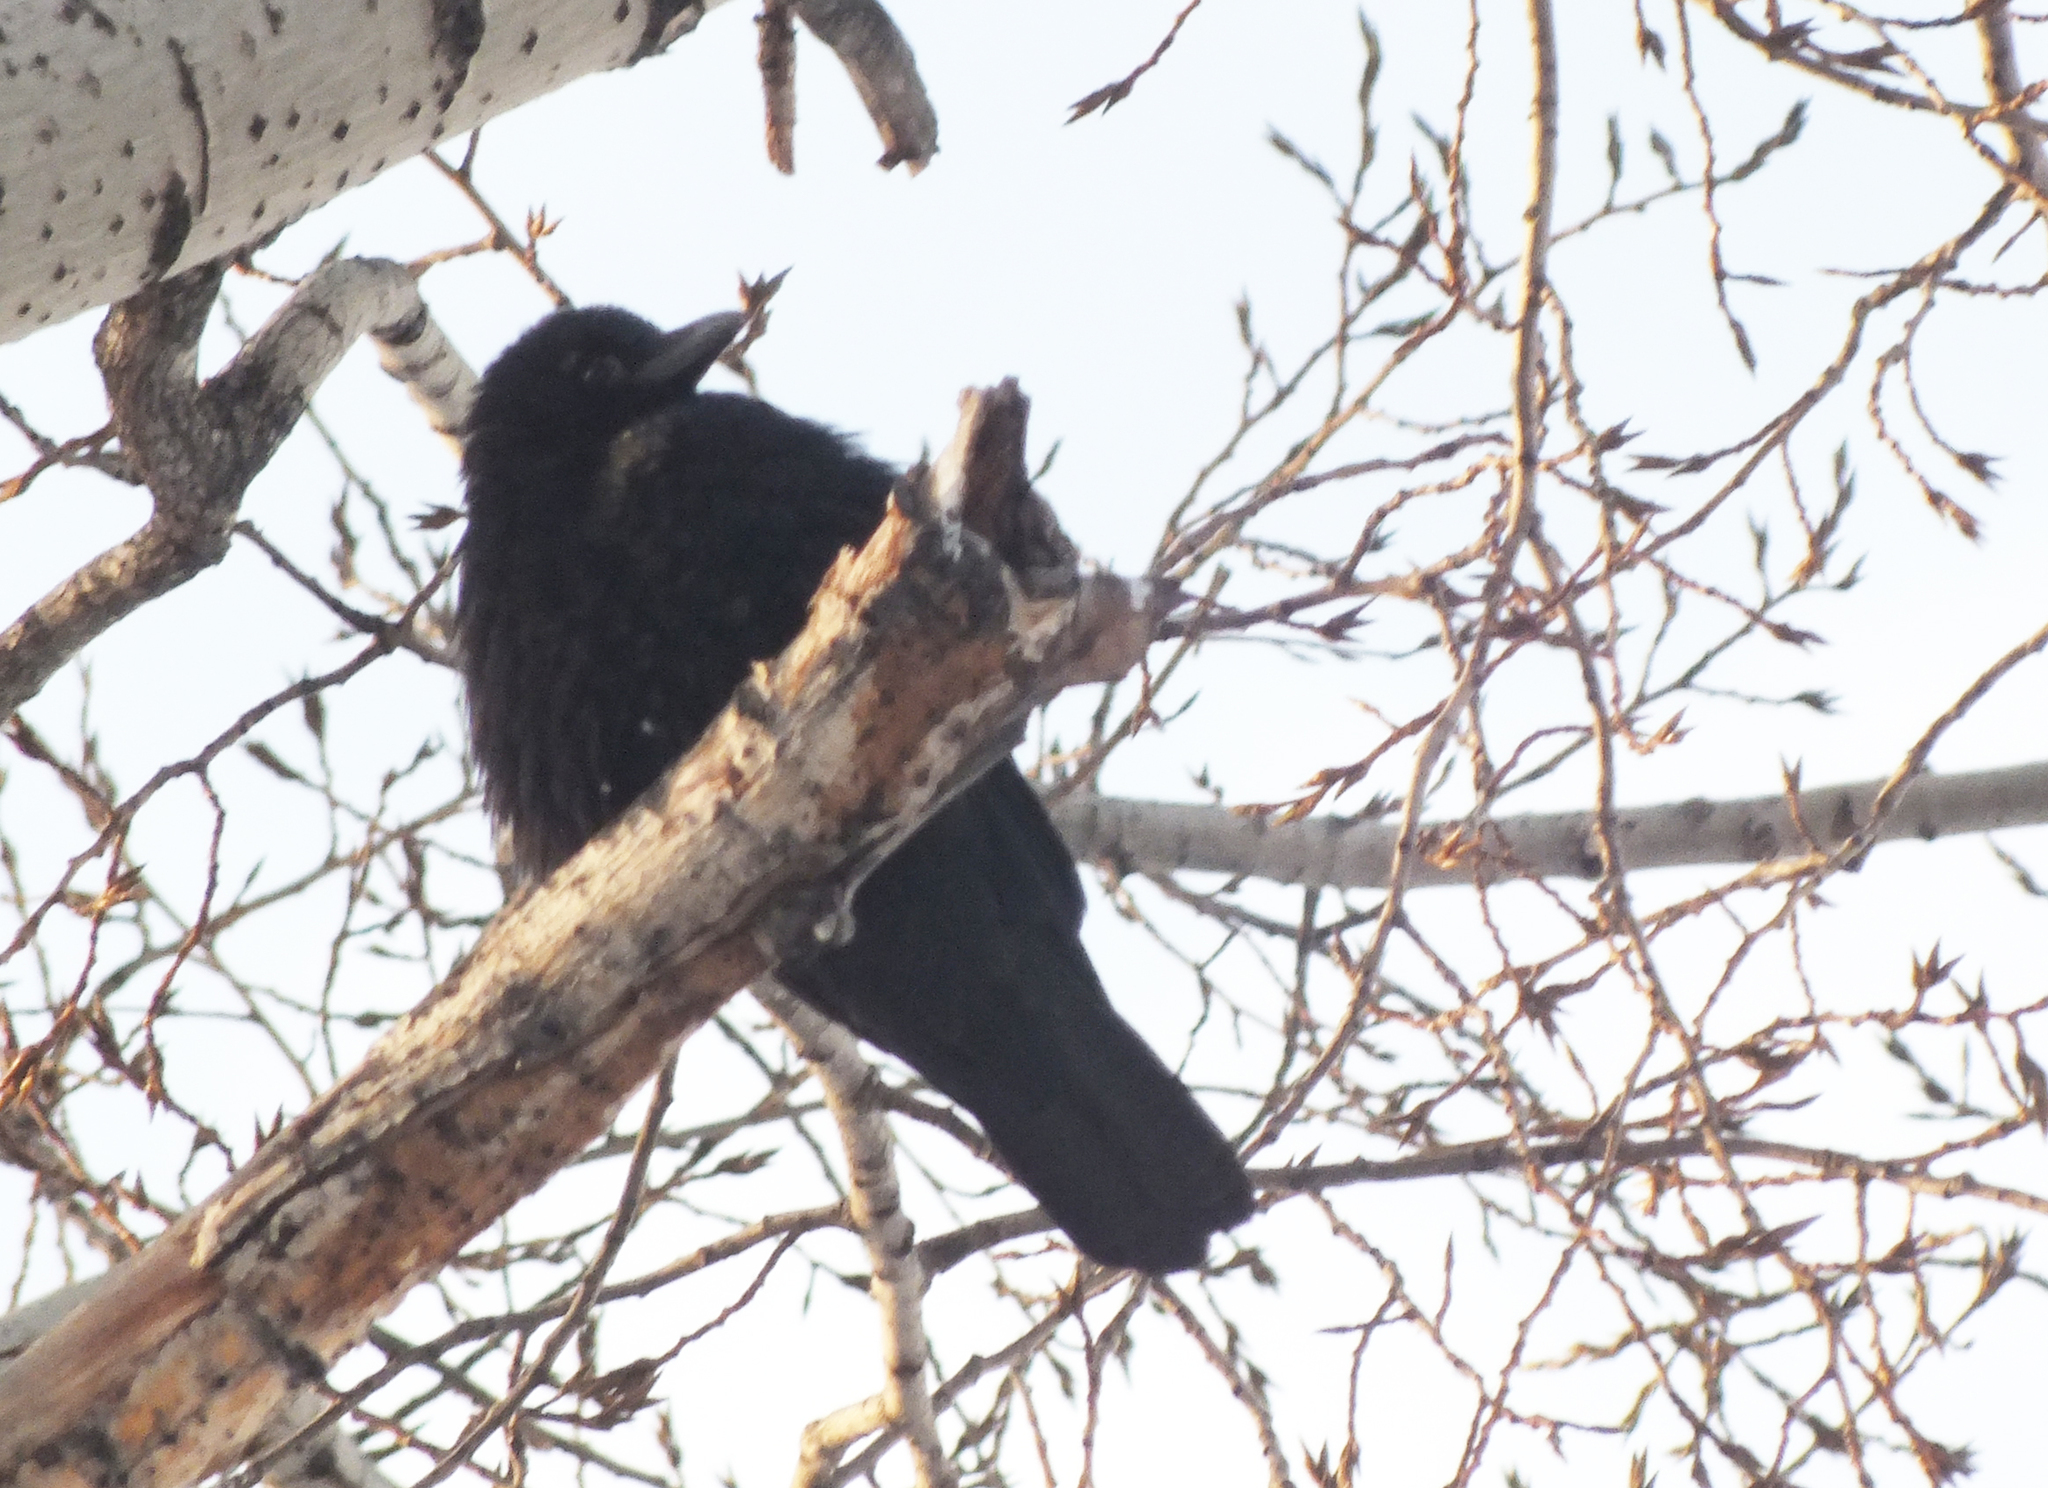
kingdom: Animalia
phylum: Chordata
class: Aves
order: Passeriformes
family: Corvidae
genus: Corvus
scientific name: Corvus corone
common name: Carrion crow
